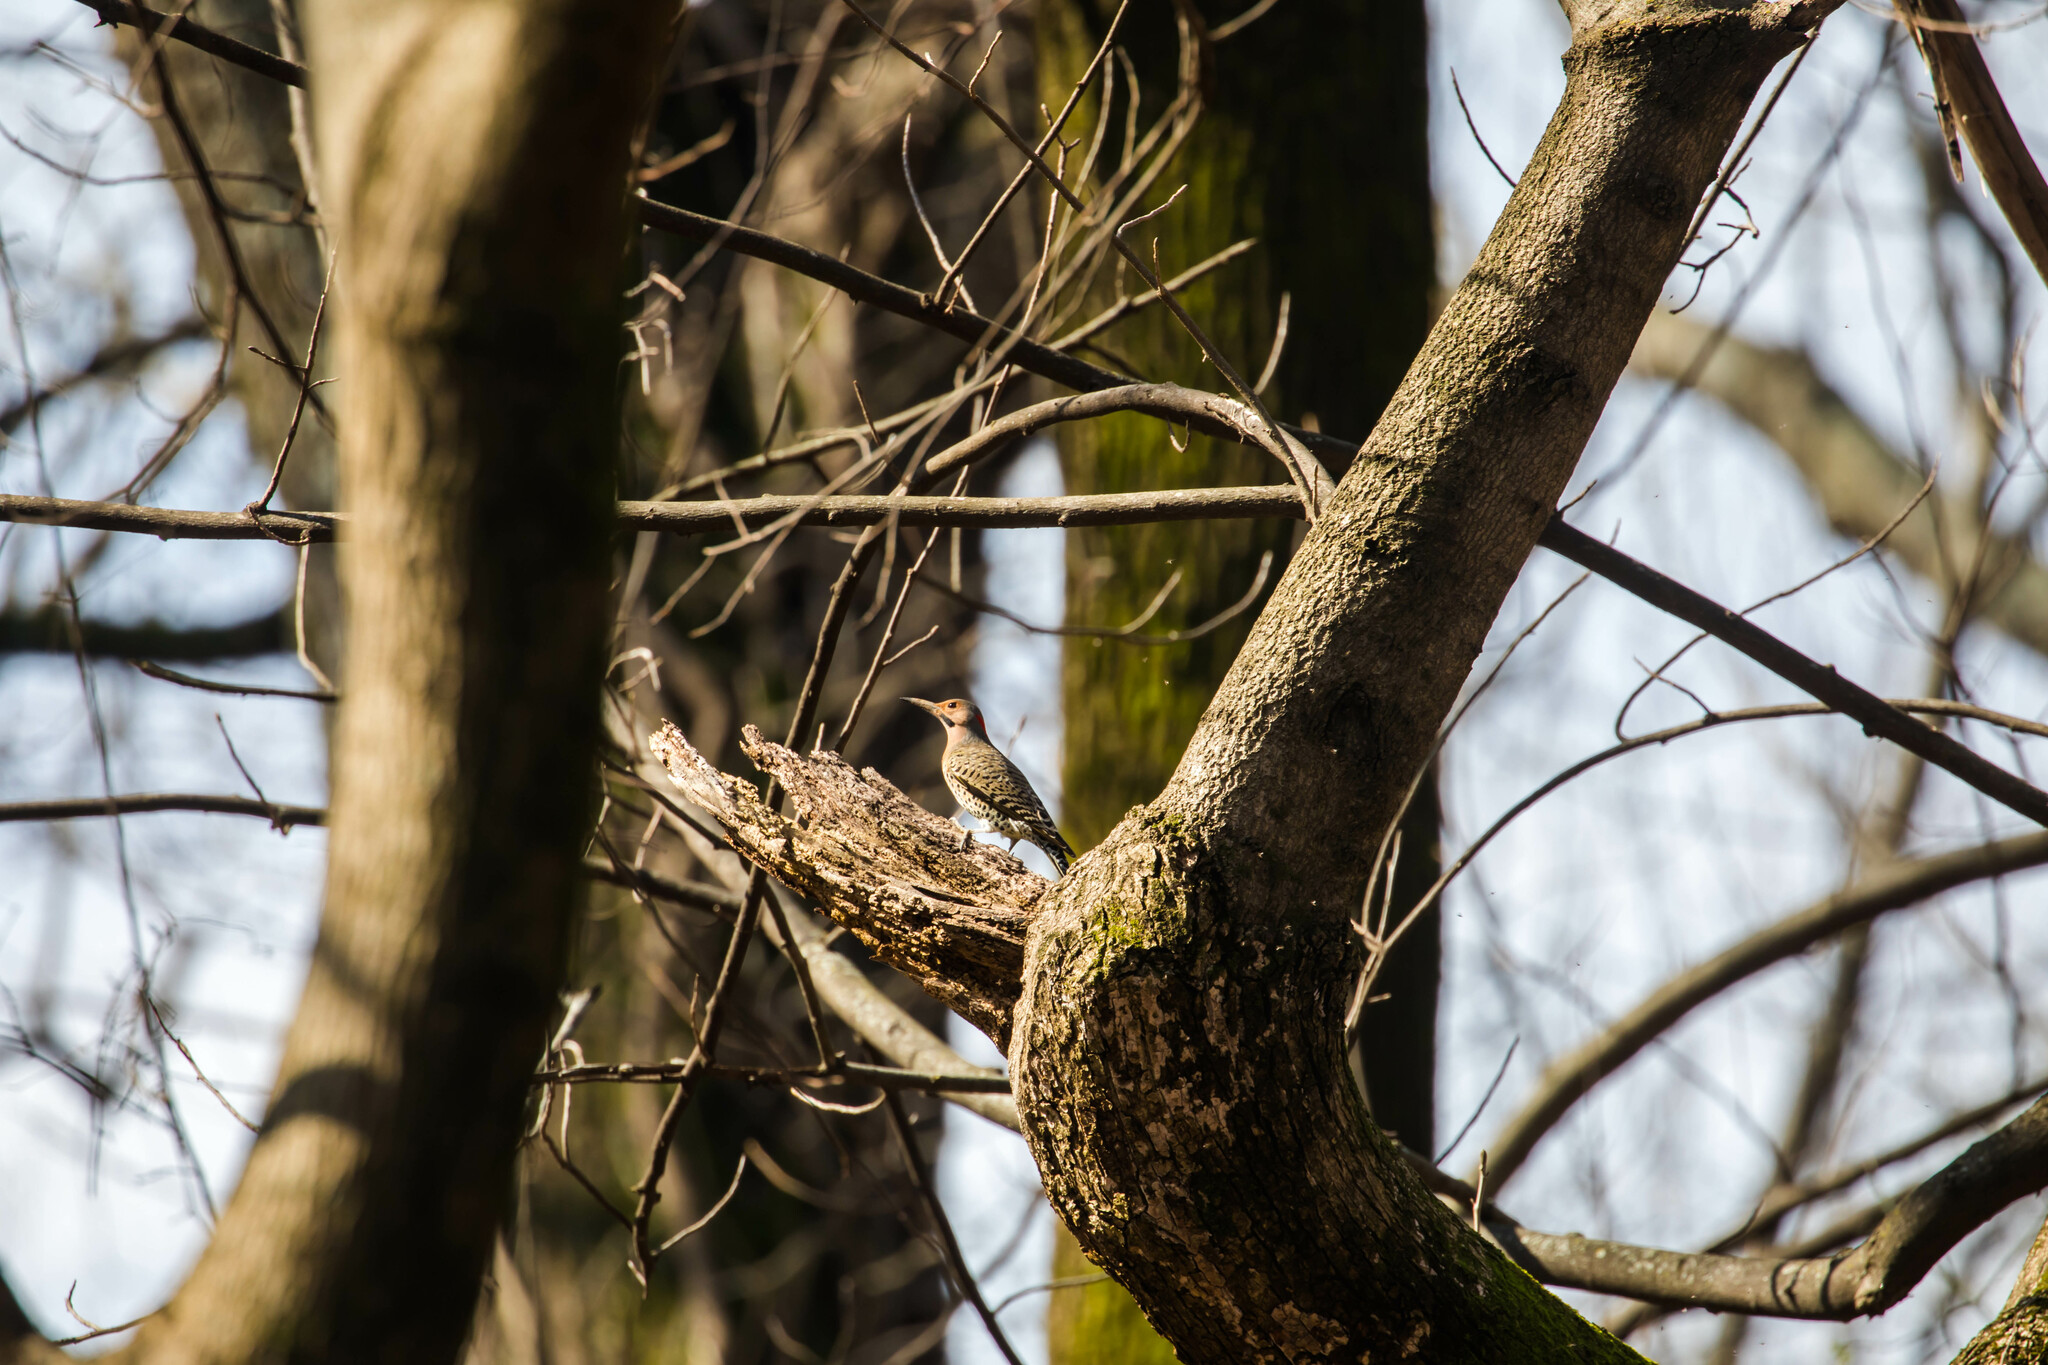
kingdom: Animalia
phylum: Chordata
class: Aves
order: Piciformes
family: Picidae
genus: Colaptes
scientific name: Colaptes auratus
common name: Northern flicker
